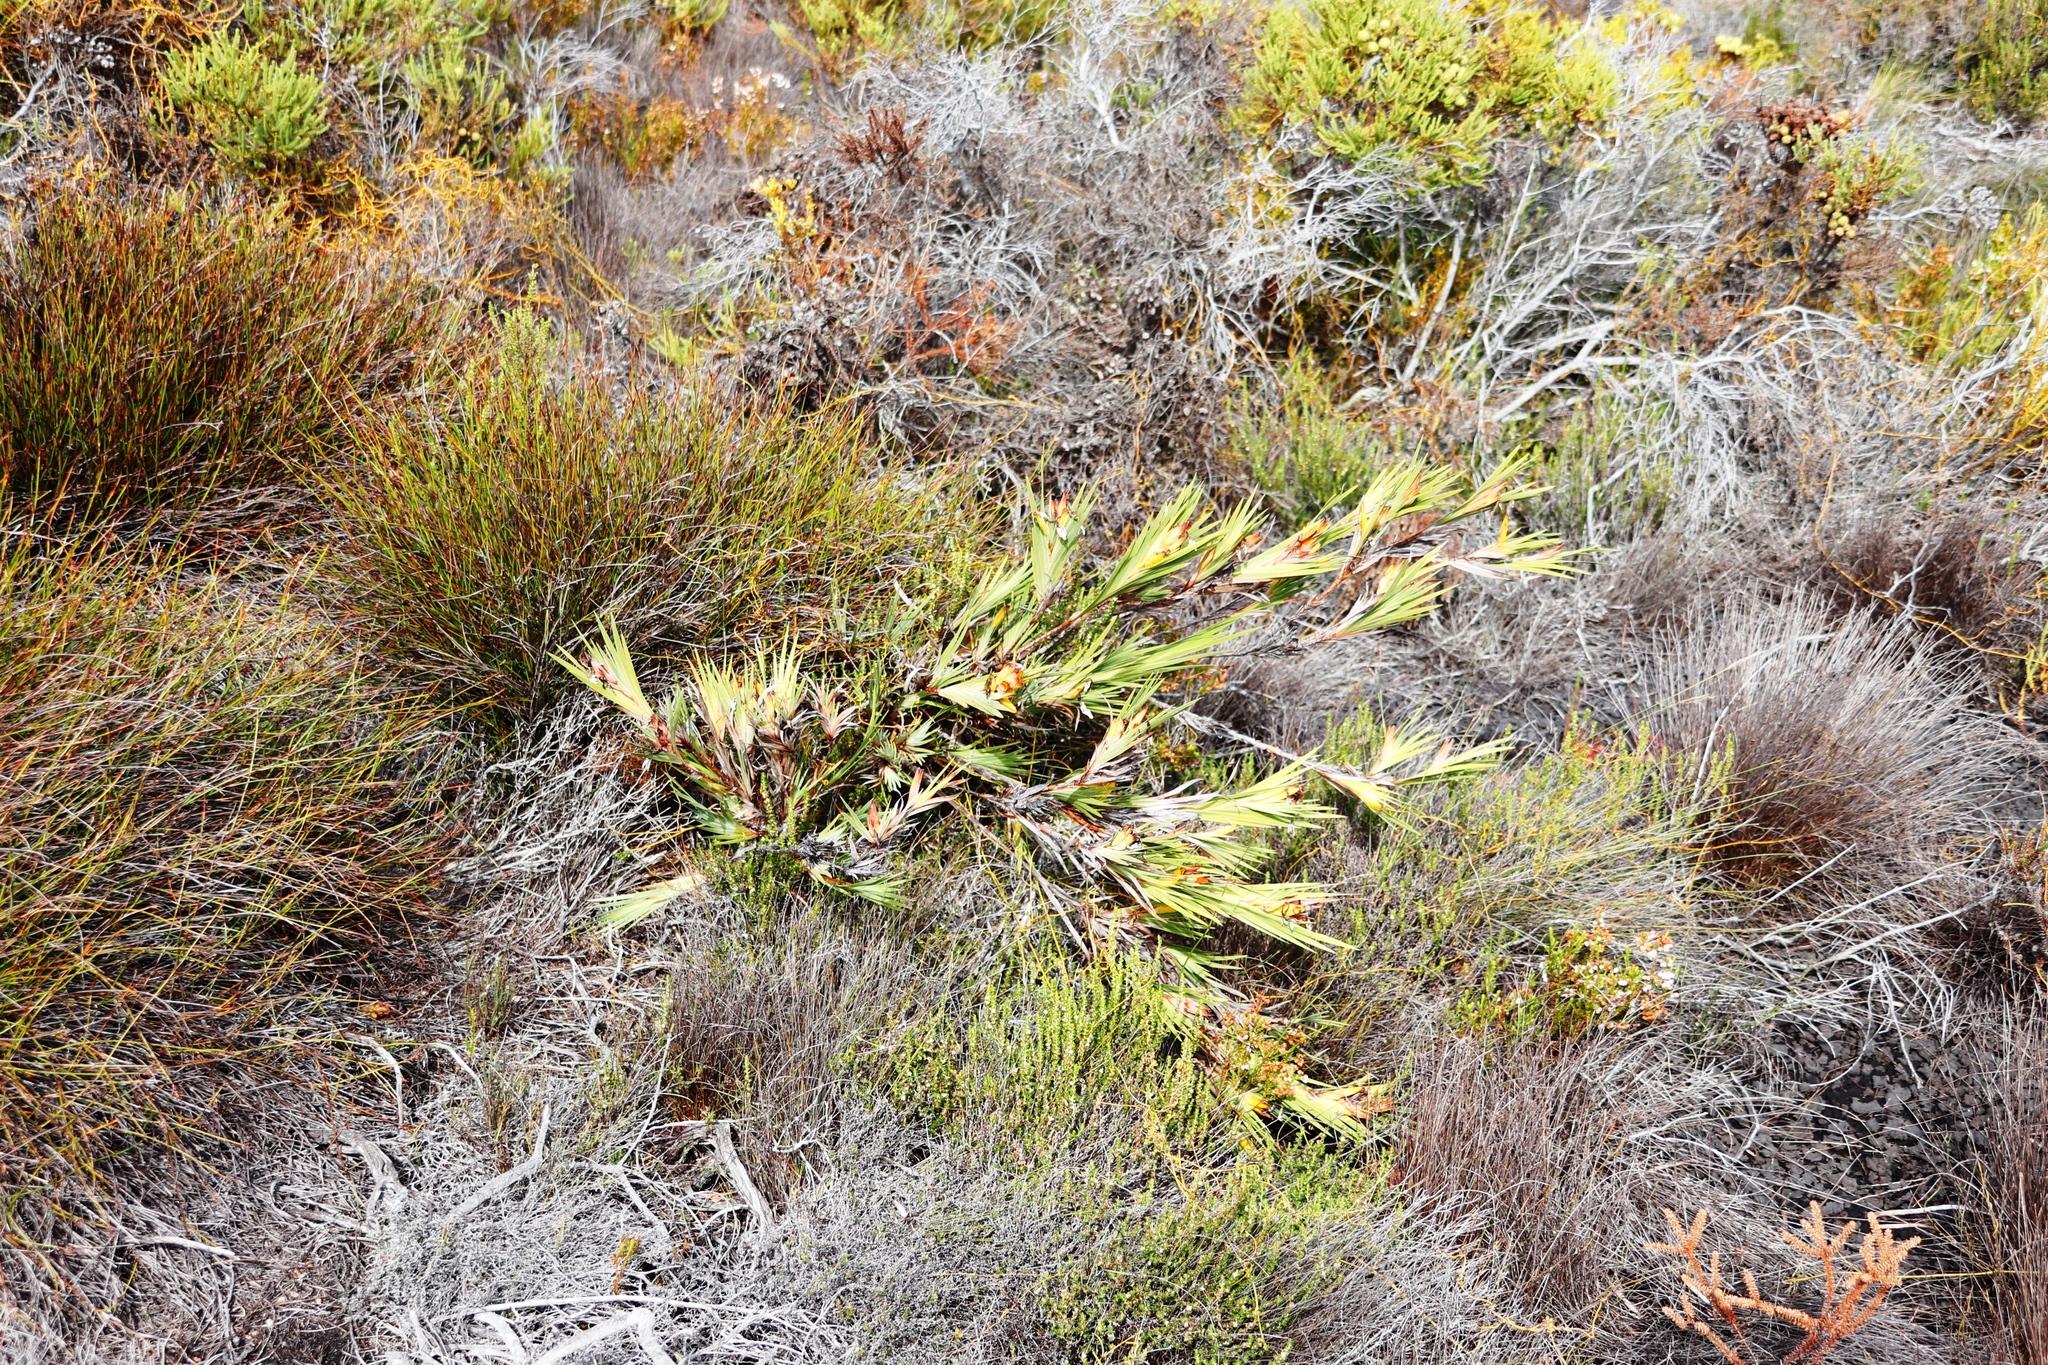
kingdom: Plantae
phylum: Tracheophyta
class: Liliopsida
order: Asparagales
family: Iridaceae
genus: Witsenia
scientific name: Witsenia maura
